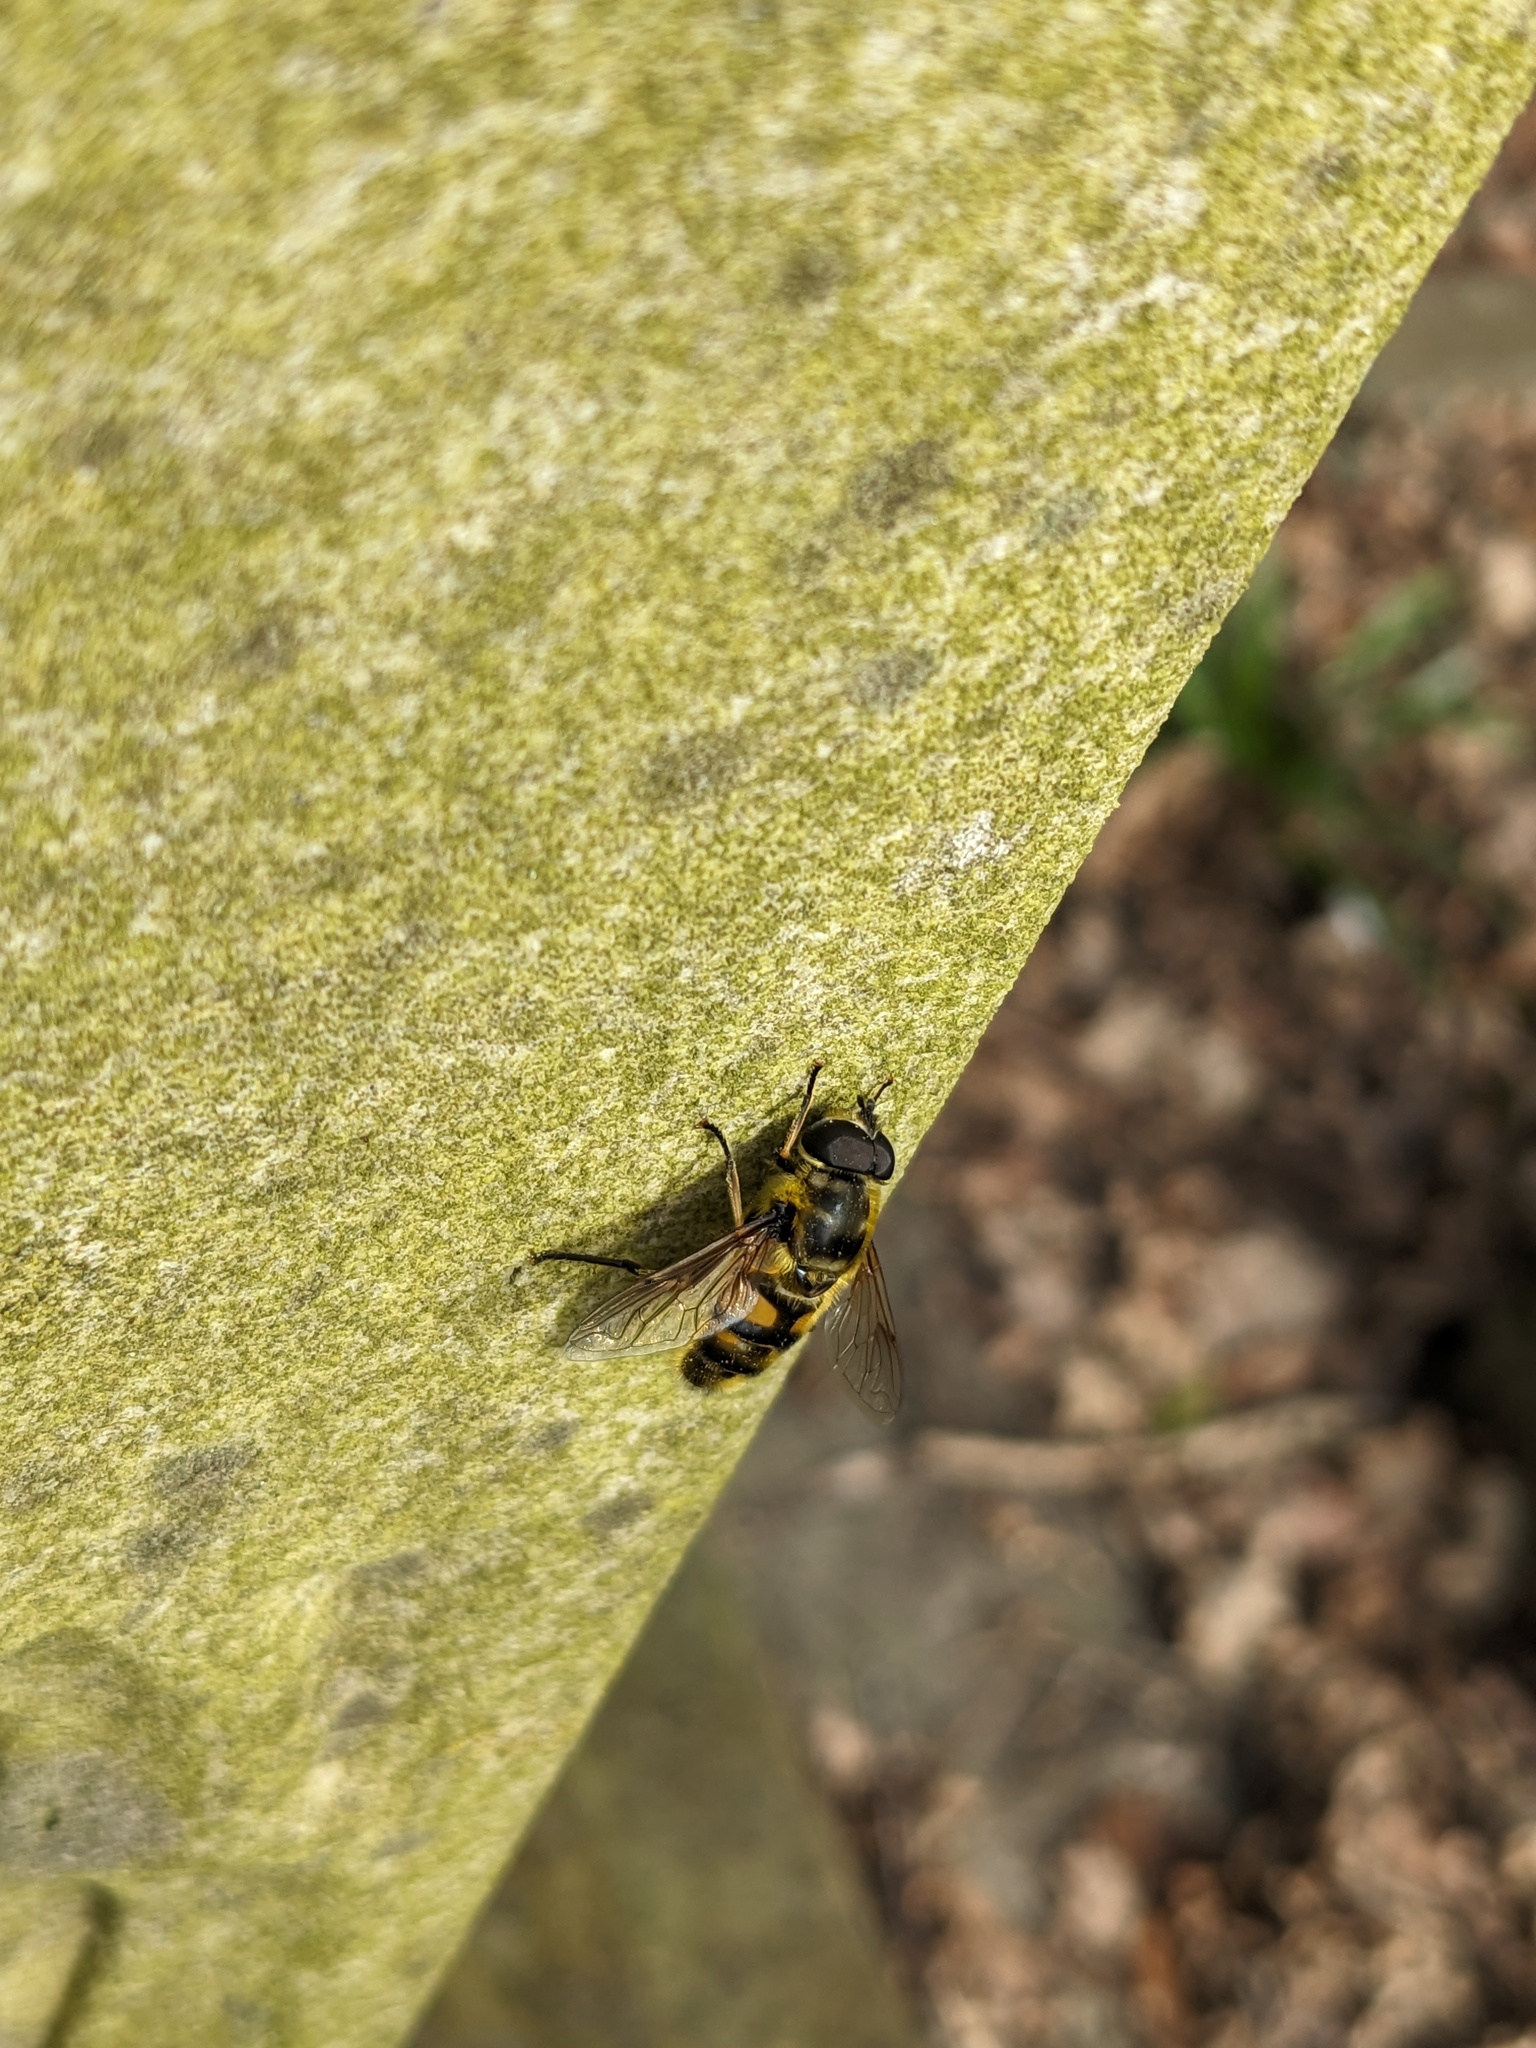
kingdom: Animalia
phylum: Arthropoda
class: Insecta
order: Diptera
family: Syrphidae
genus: Myathropa
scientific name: Myathropa florea
